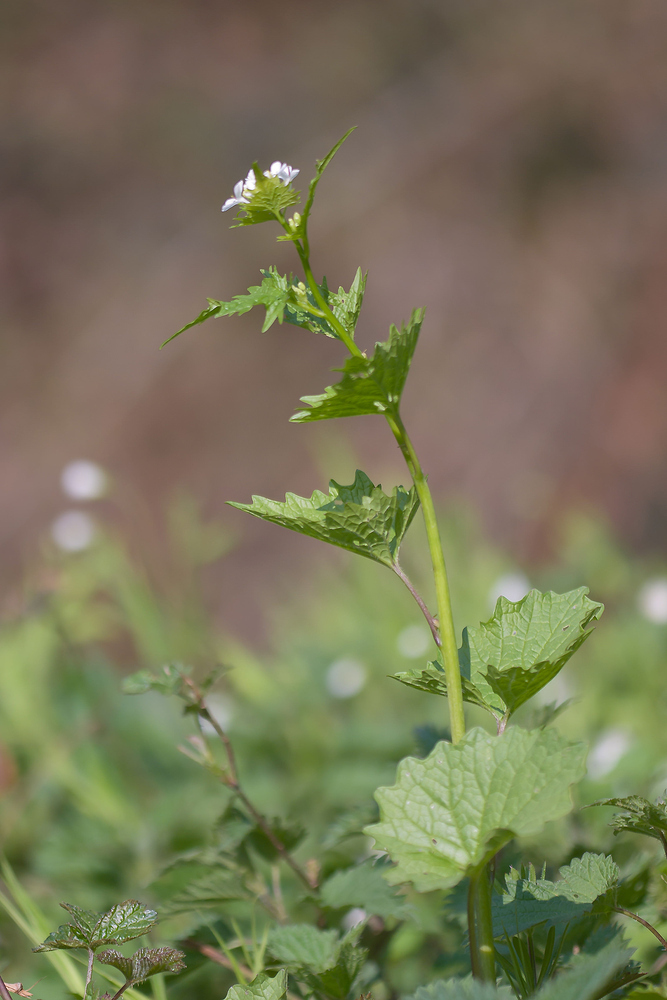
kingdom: Plantae
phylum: Tracheophyta
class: Magnoliopsida
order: Brassicales
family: Brassicaceae
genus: Alliaria
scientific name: Alliaria petiolata
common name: Garlic mustard
